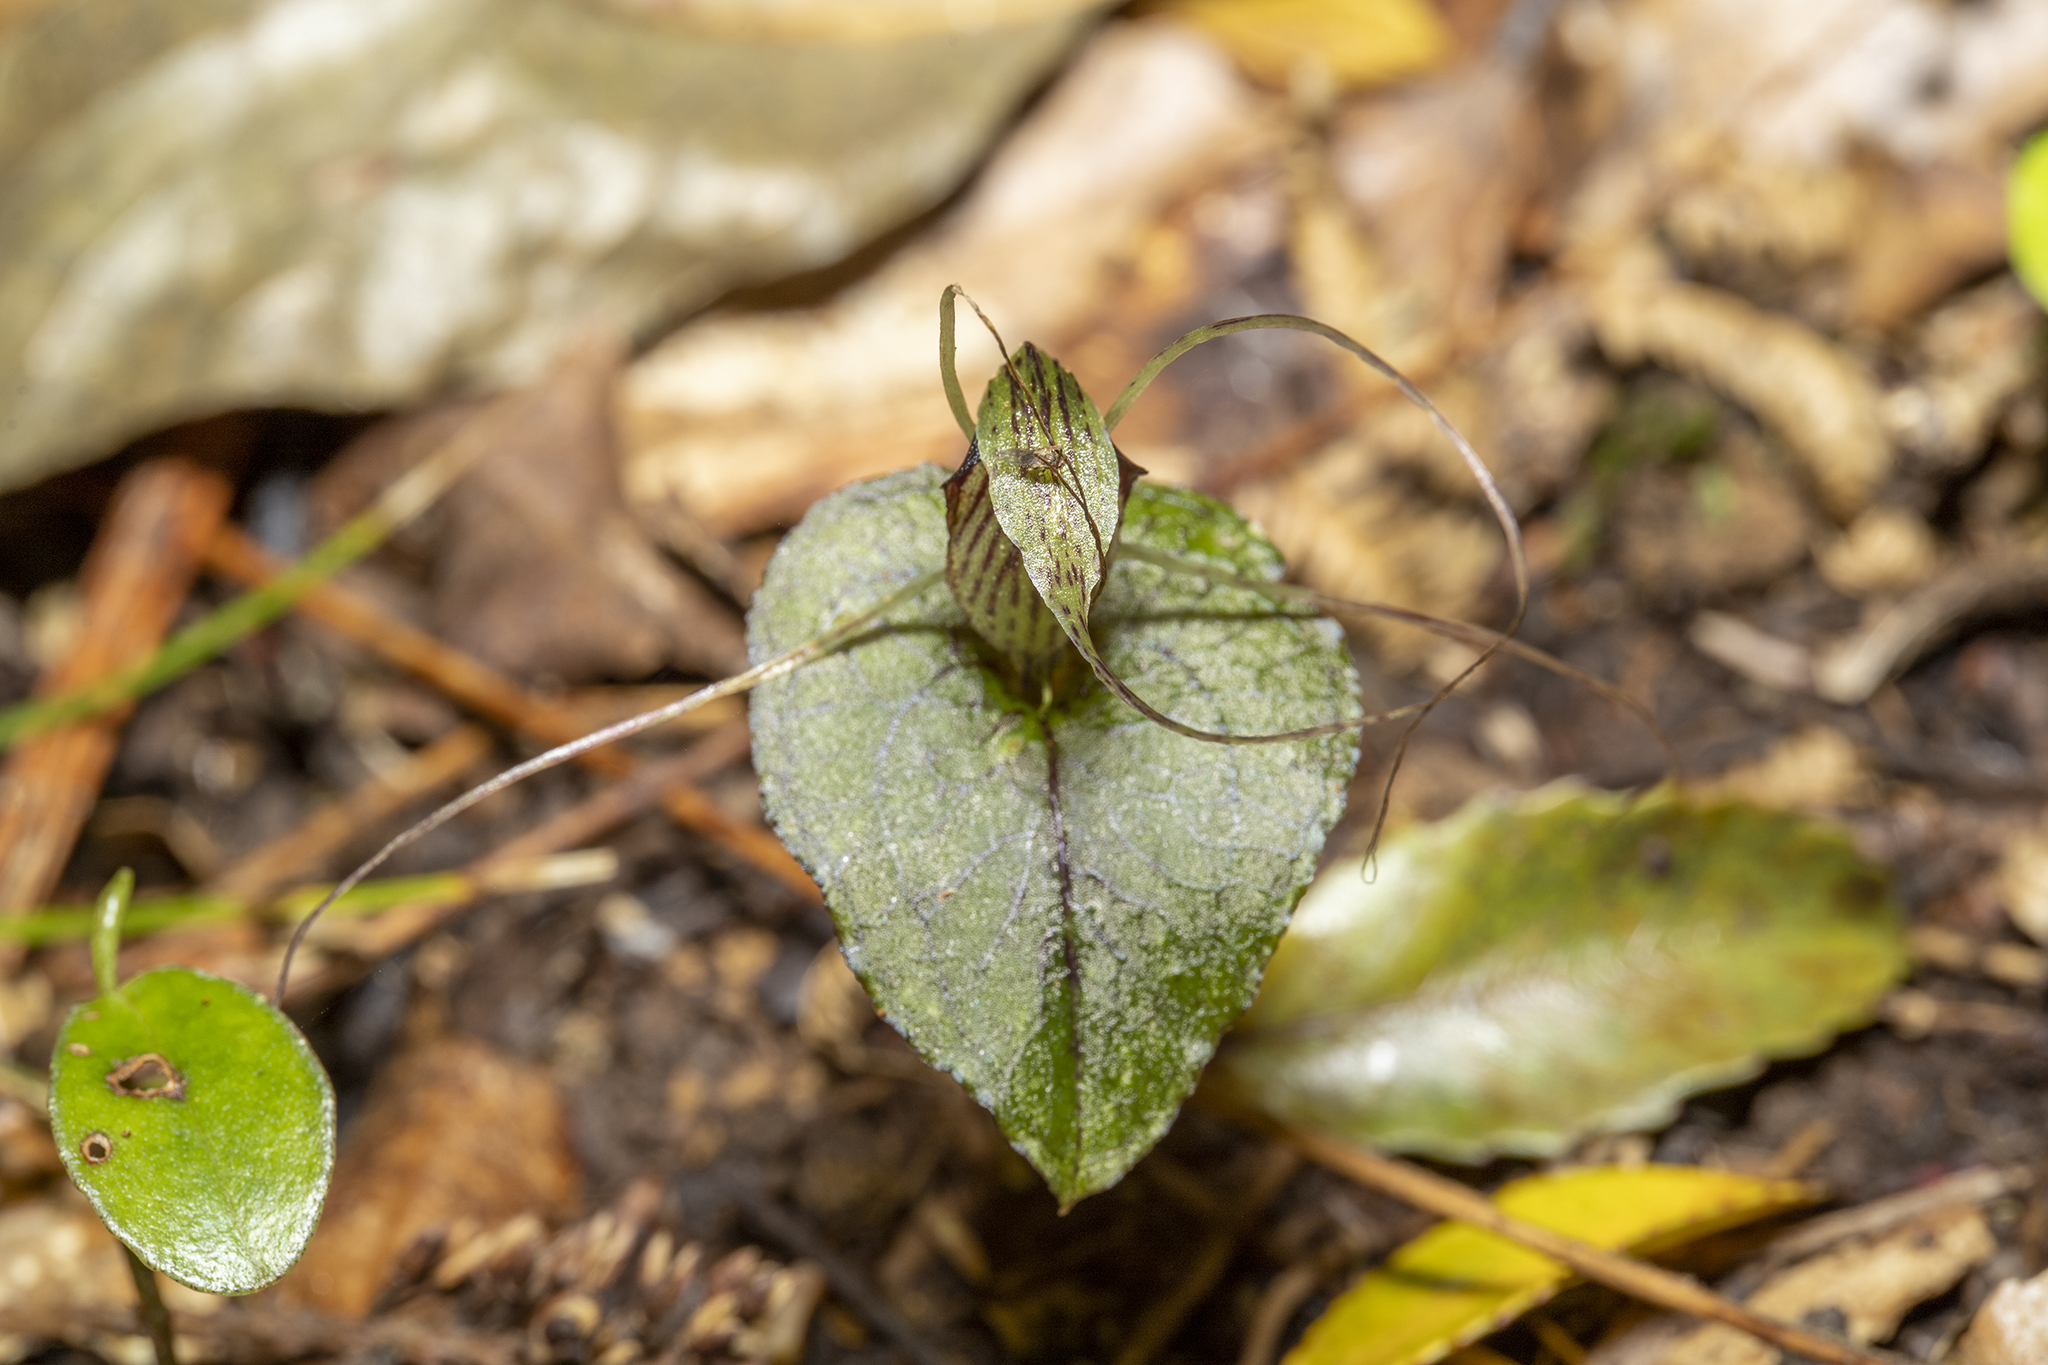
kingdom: Plantae
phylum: Tracheophyta
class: Liliopsida
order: Asparagales
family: Orchidaceae
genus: Corybas
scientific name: Corybas acuminatus
